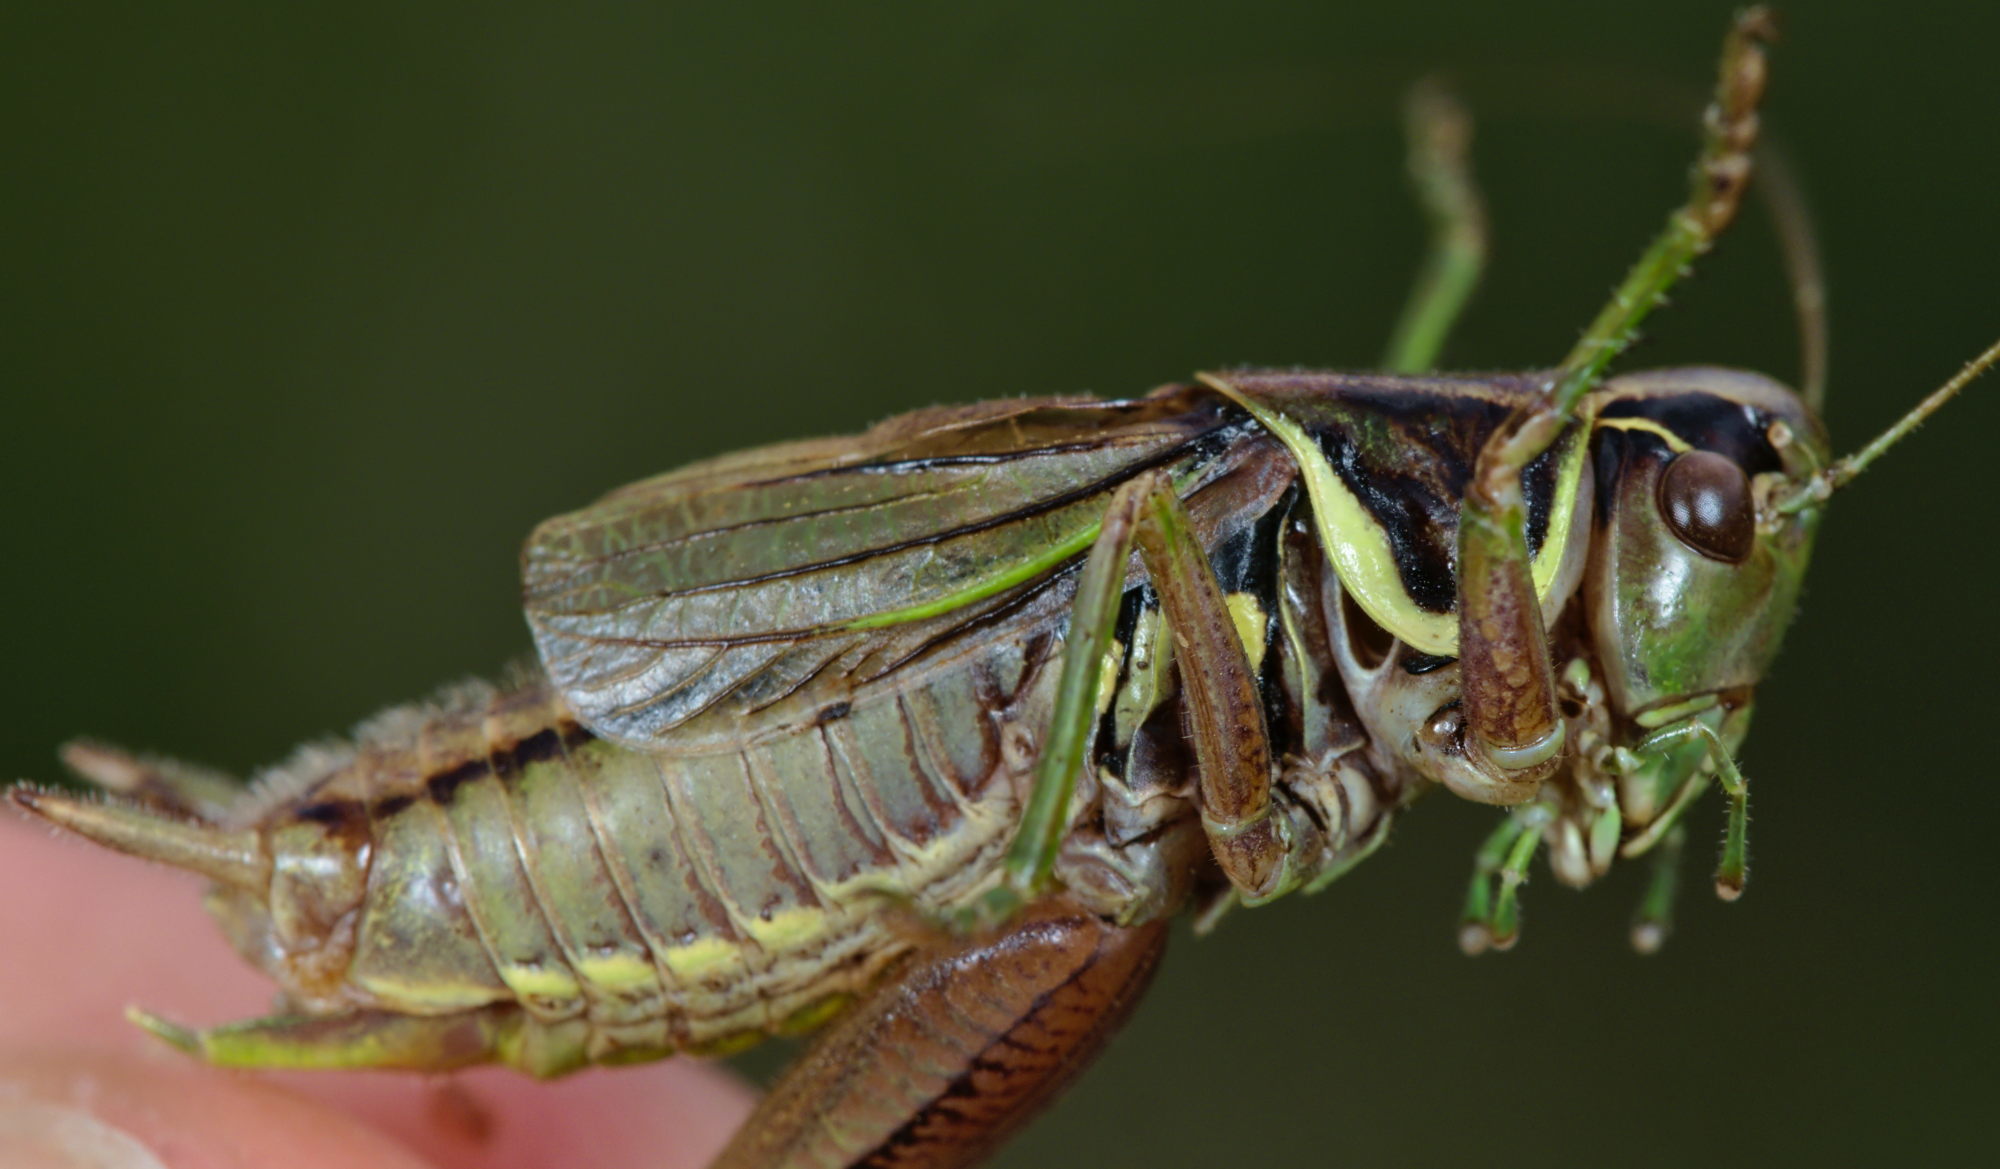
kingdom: Animalia
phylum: Arthropoda
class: Insecta
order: Orthoptera
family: Tettigoniidae
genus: Roeseliana
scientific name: Roeseliana roeselii
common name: Roesel's bush cricket
